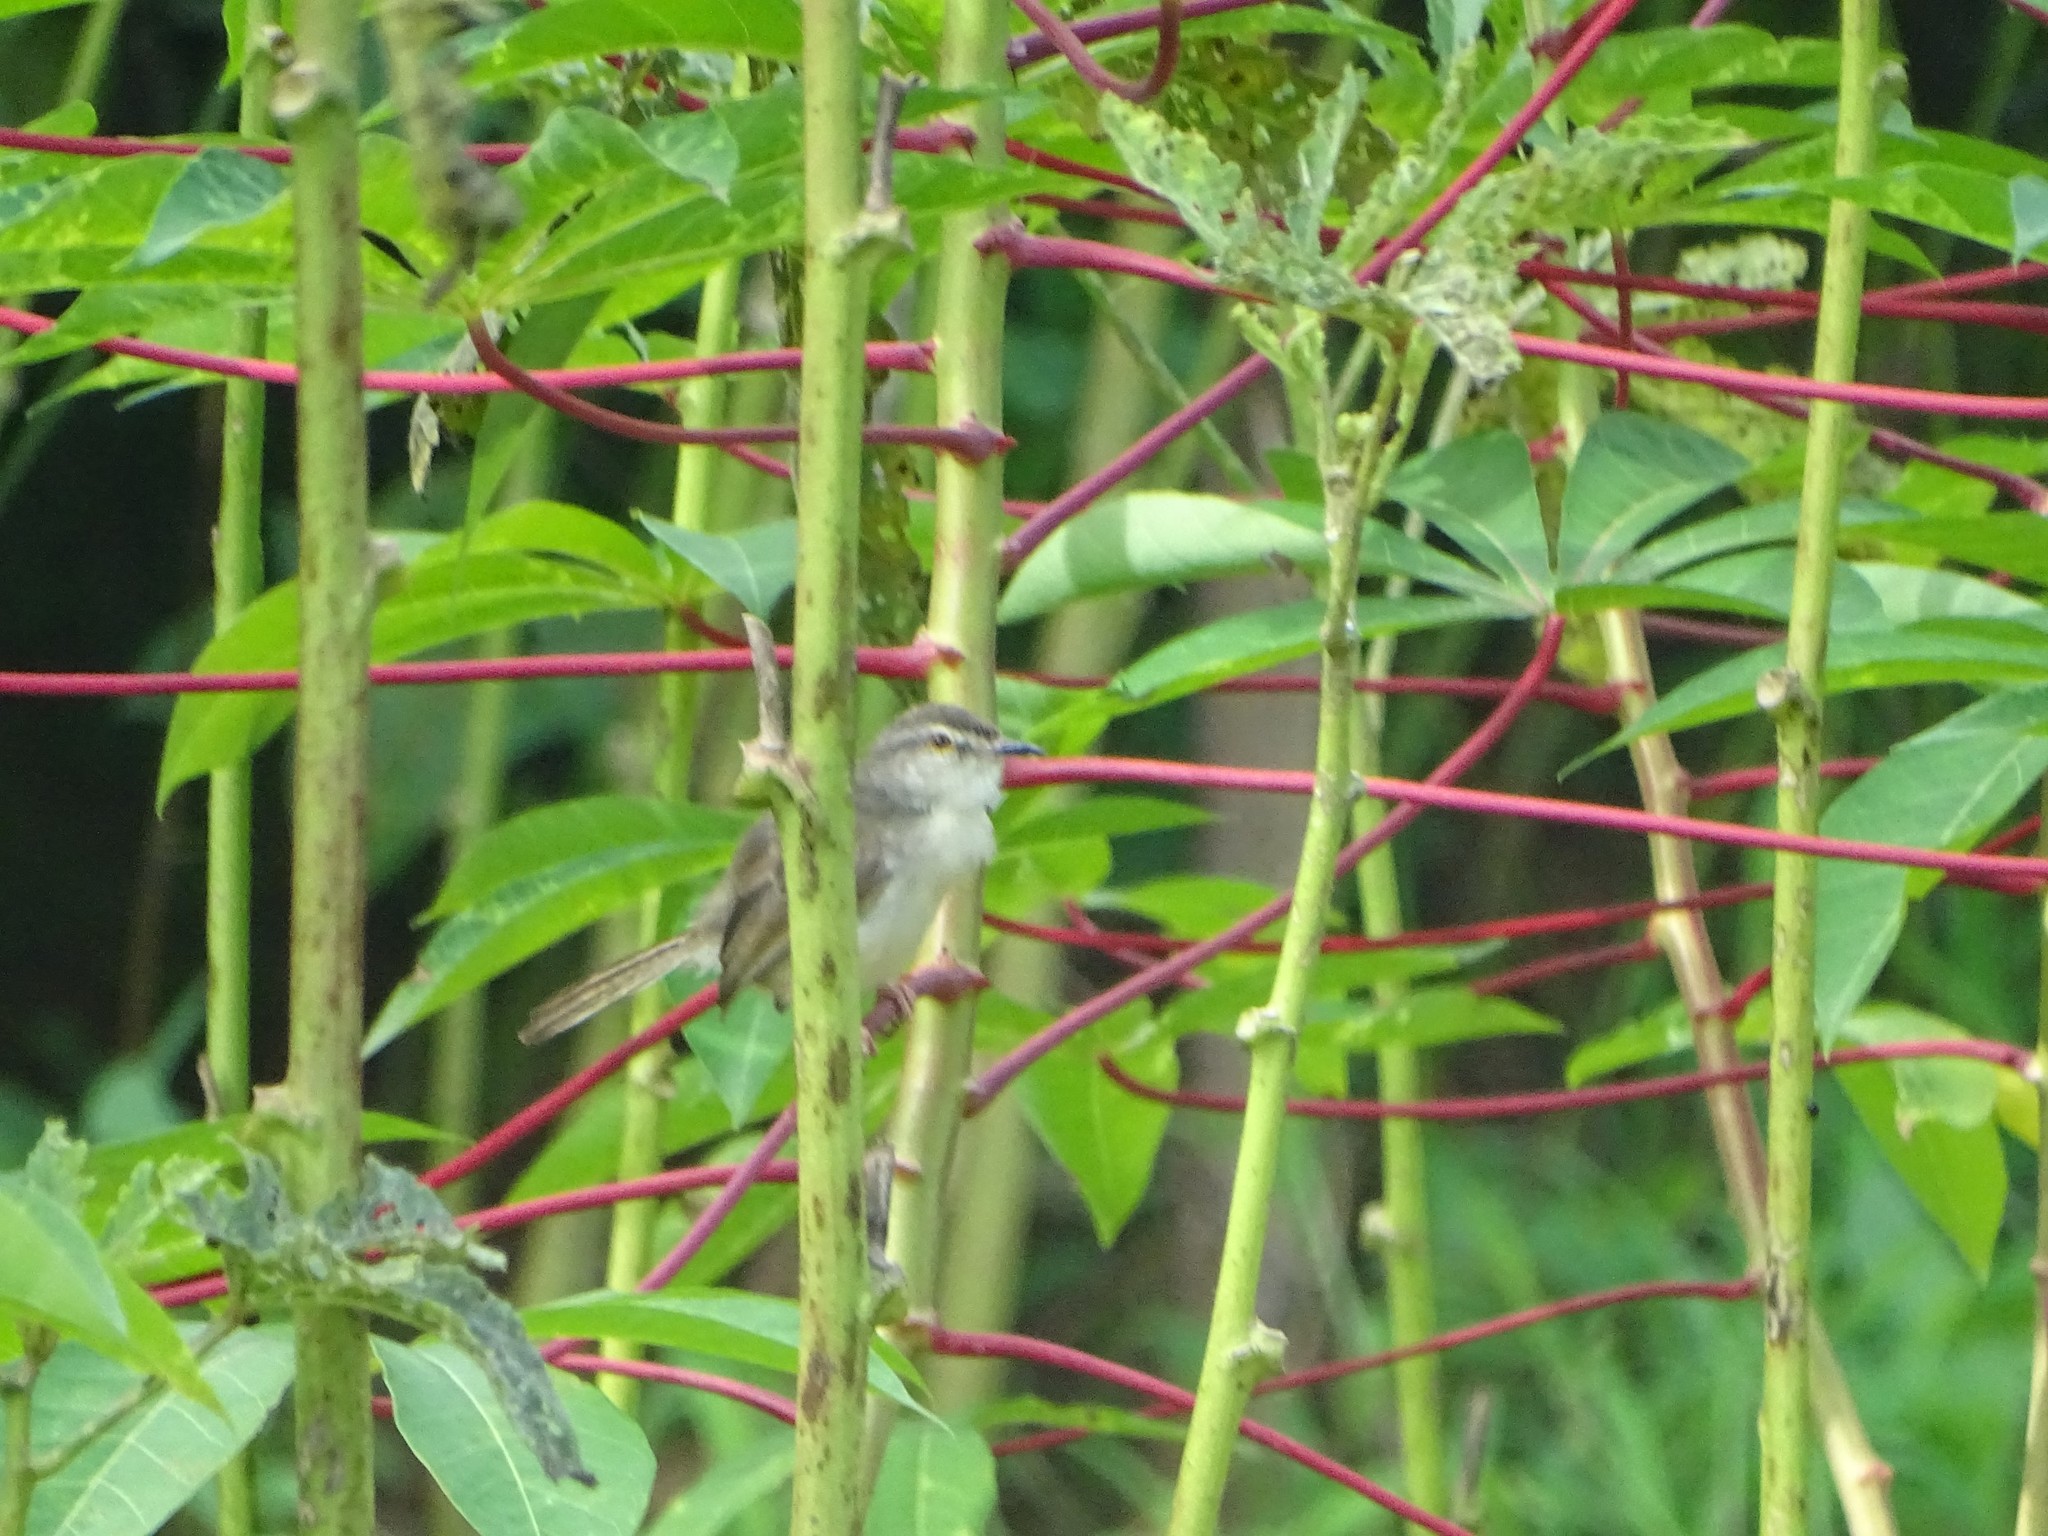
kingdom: Animalia
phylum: Chordata
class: Aves
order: Passeriformes
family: Cisticolidae
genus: Prinia
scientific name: Prinia inornata
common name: Plain prinia
